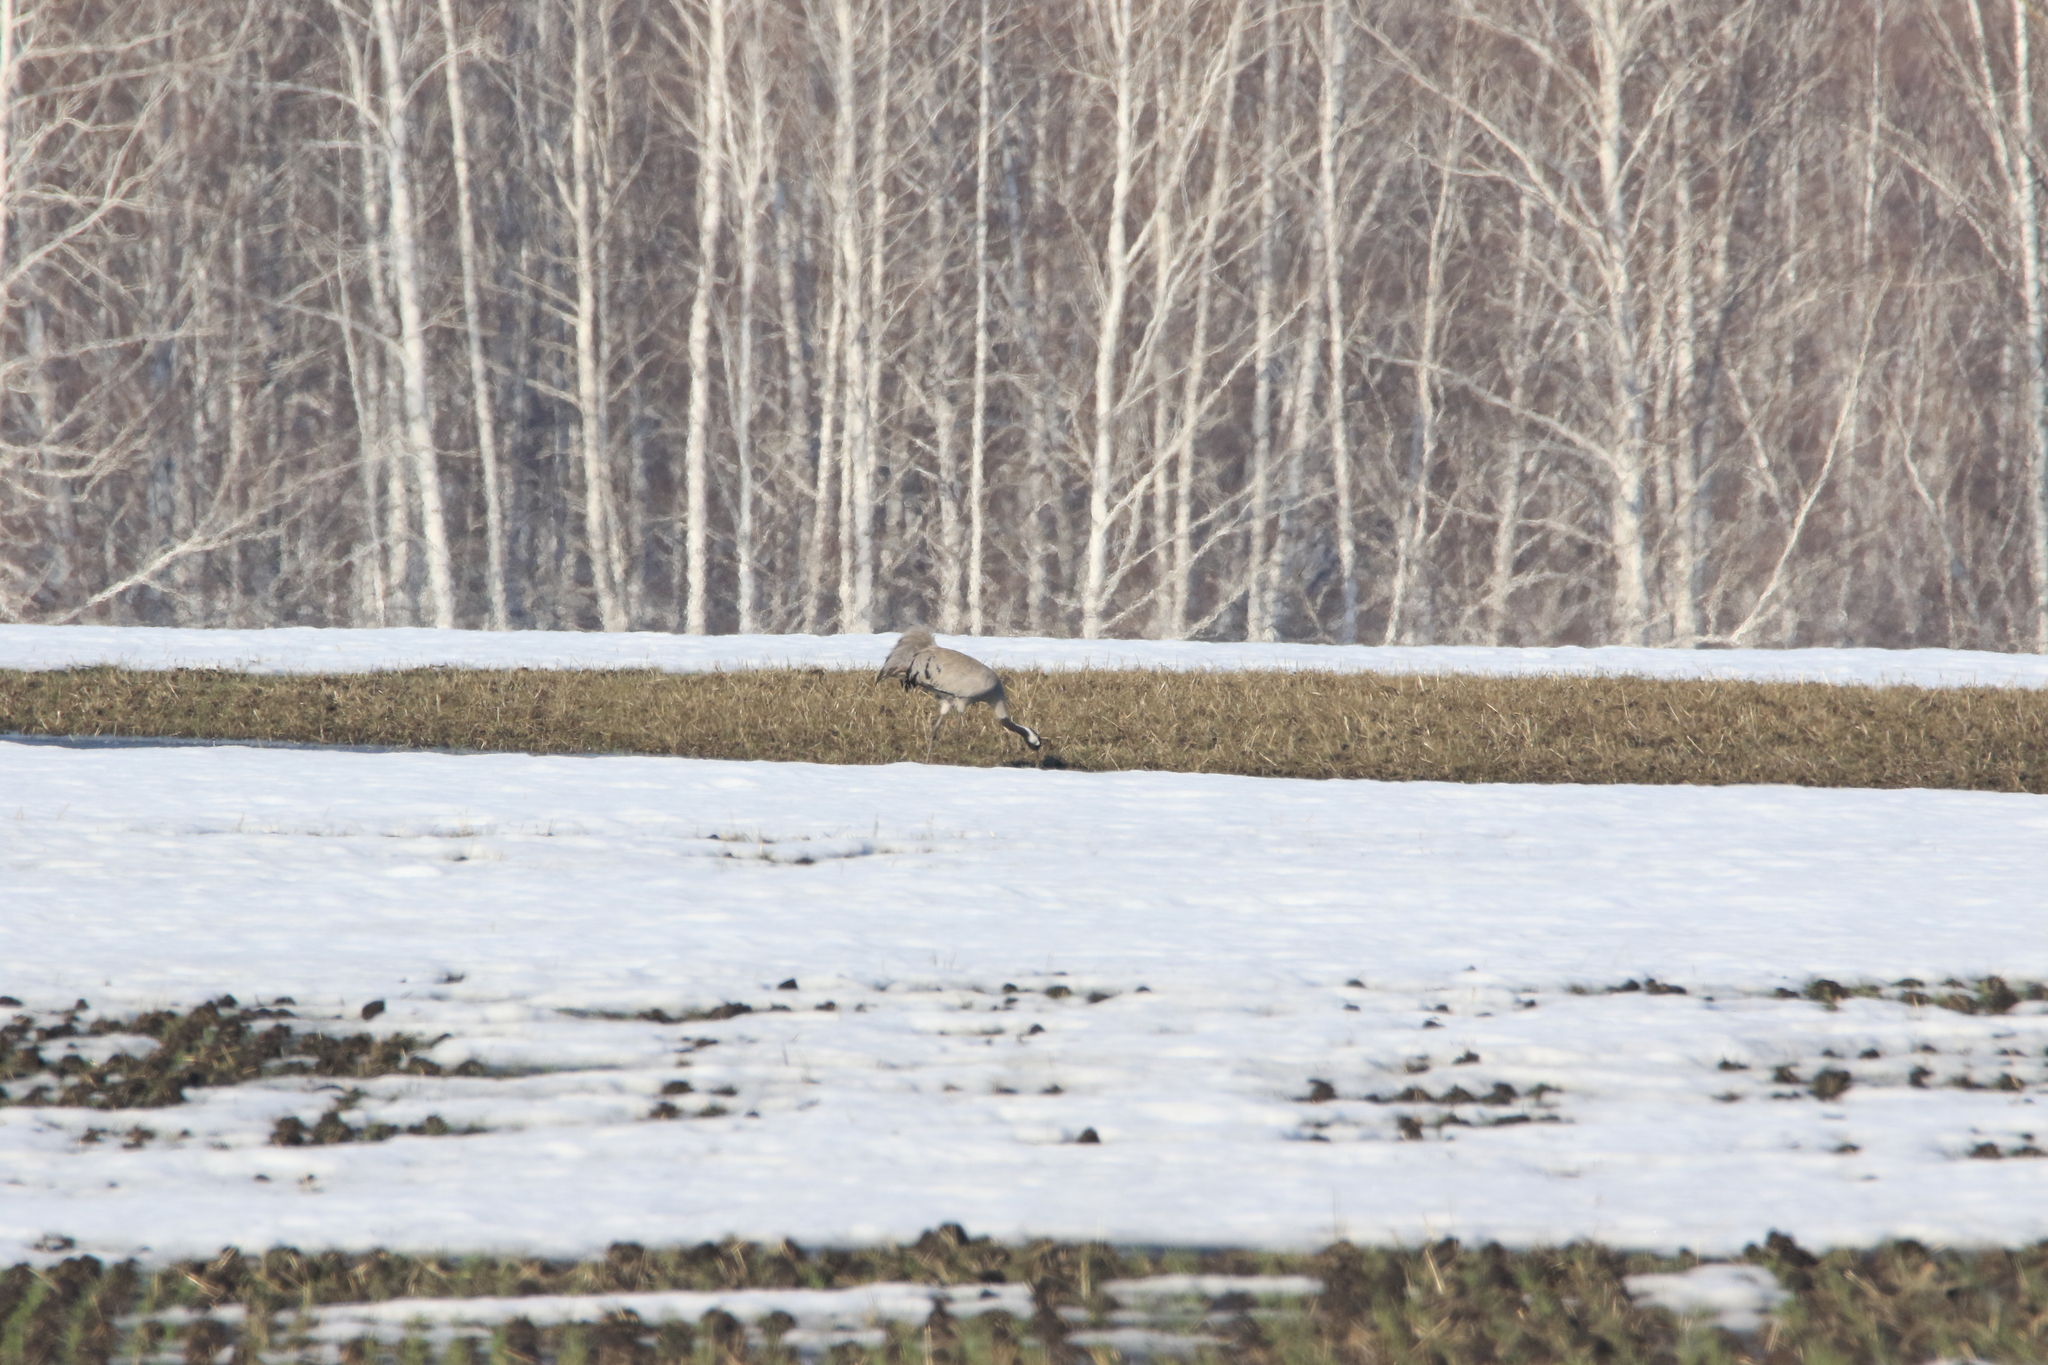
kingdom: Animalia
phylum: Chordata
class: Aves
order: Gruiformes
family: Gruidae
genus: Grus
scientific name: Grus grus
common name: Common crane
